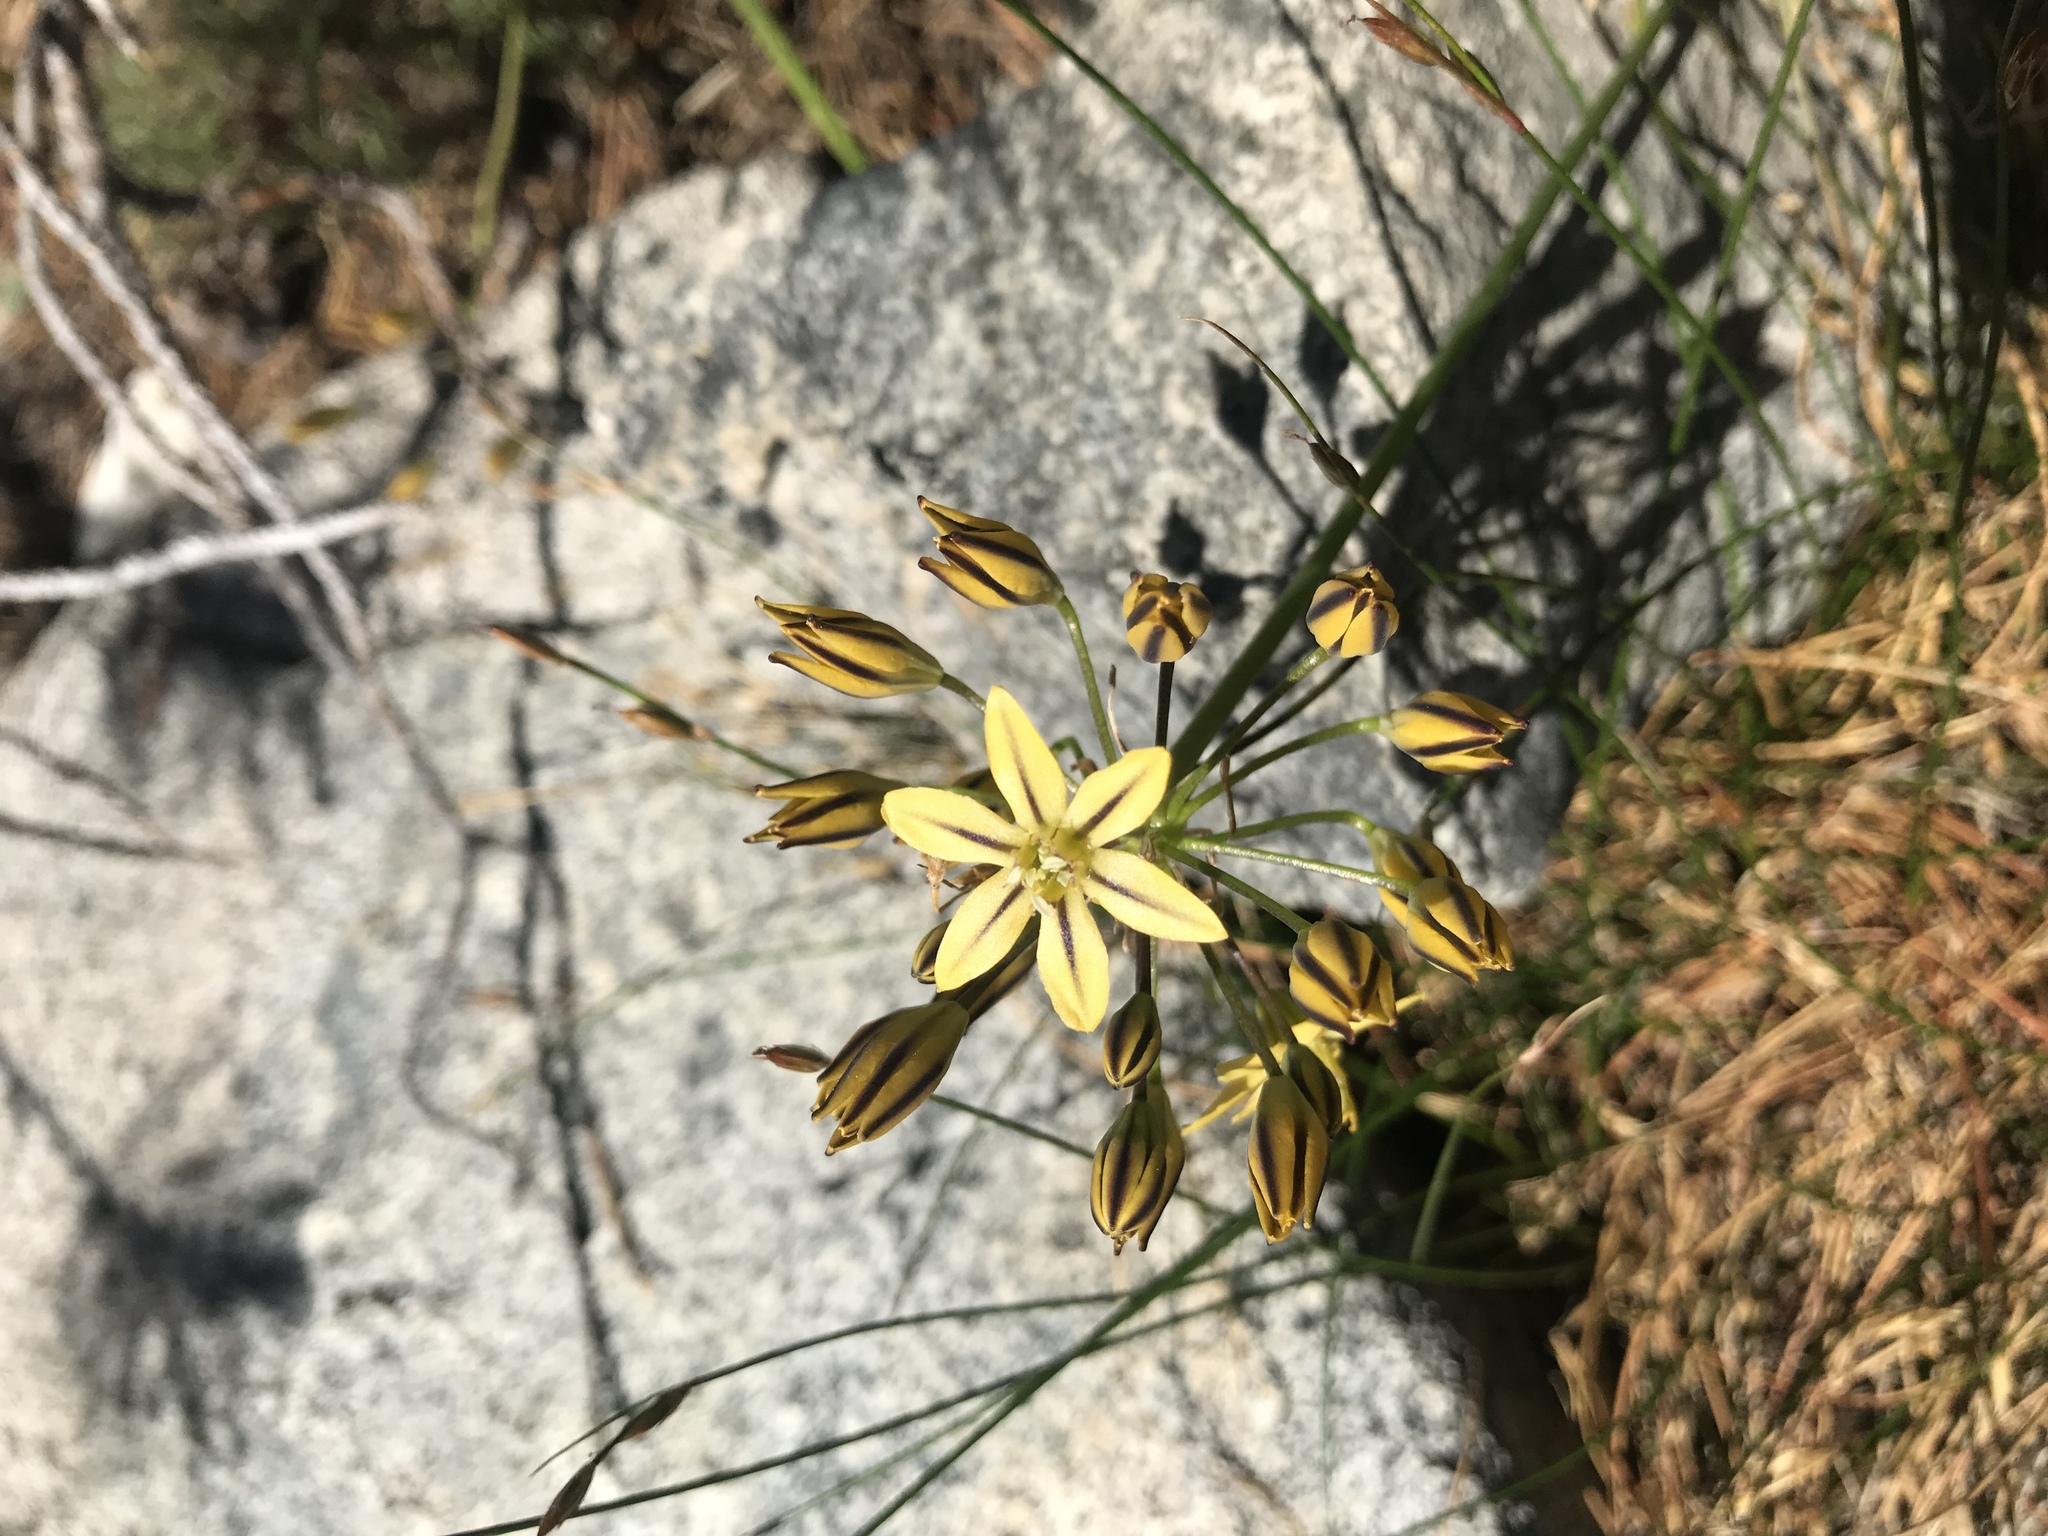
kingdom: Plantae
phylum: Tracheophyta
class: Liliopsida
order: Asparagales
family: Asparagaceae
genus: Triteleia
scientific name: Triteleia ixioides
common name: Yellow-brodiaea
